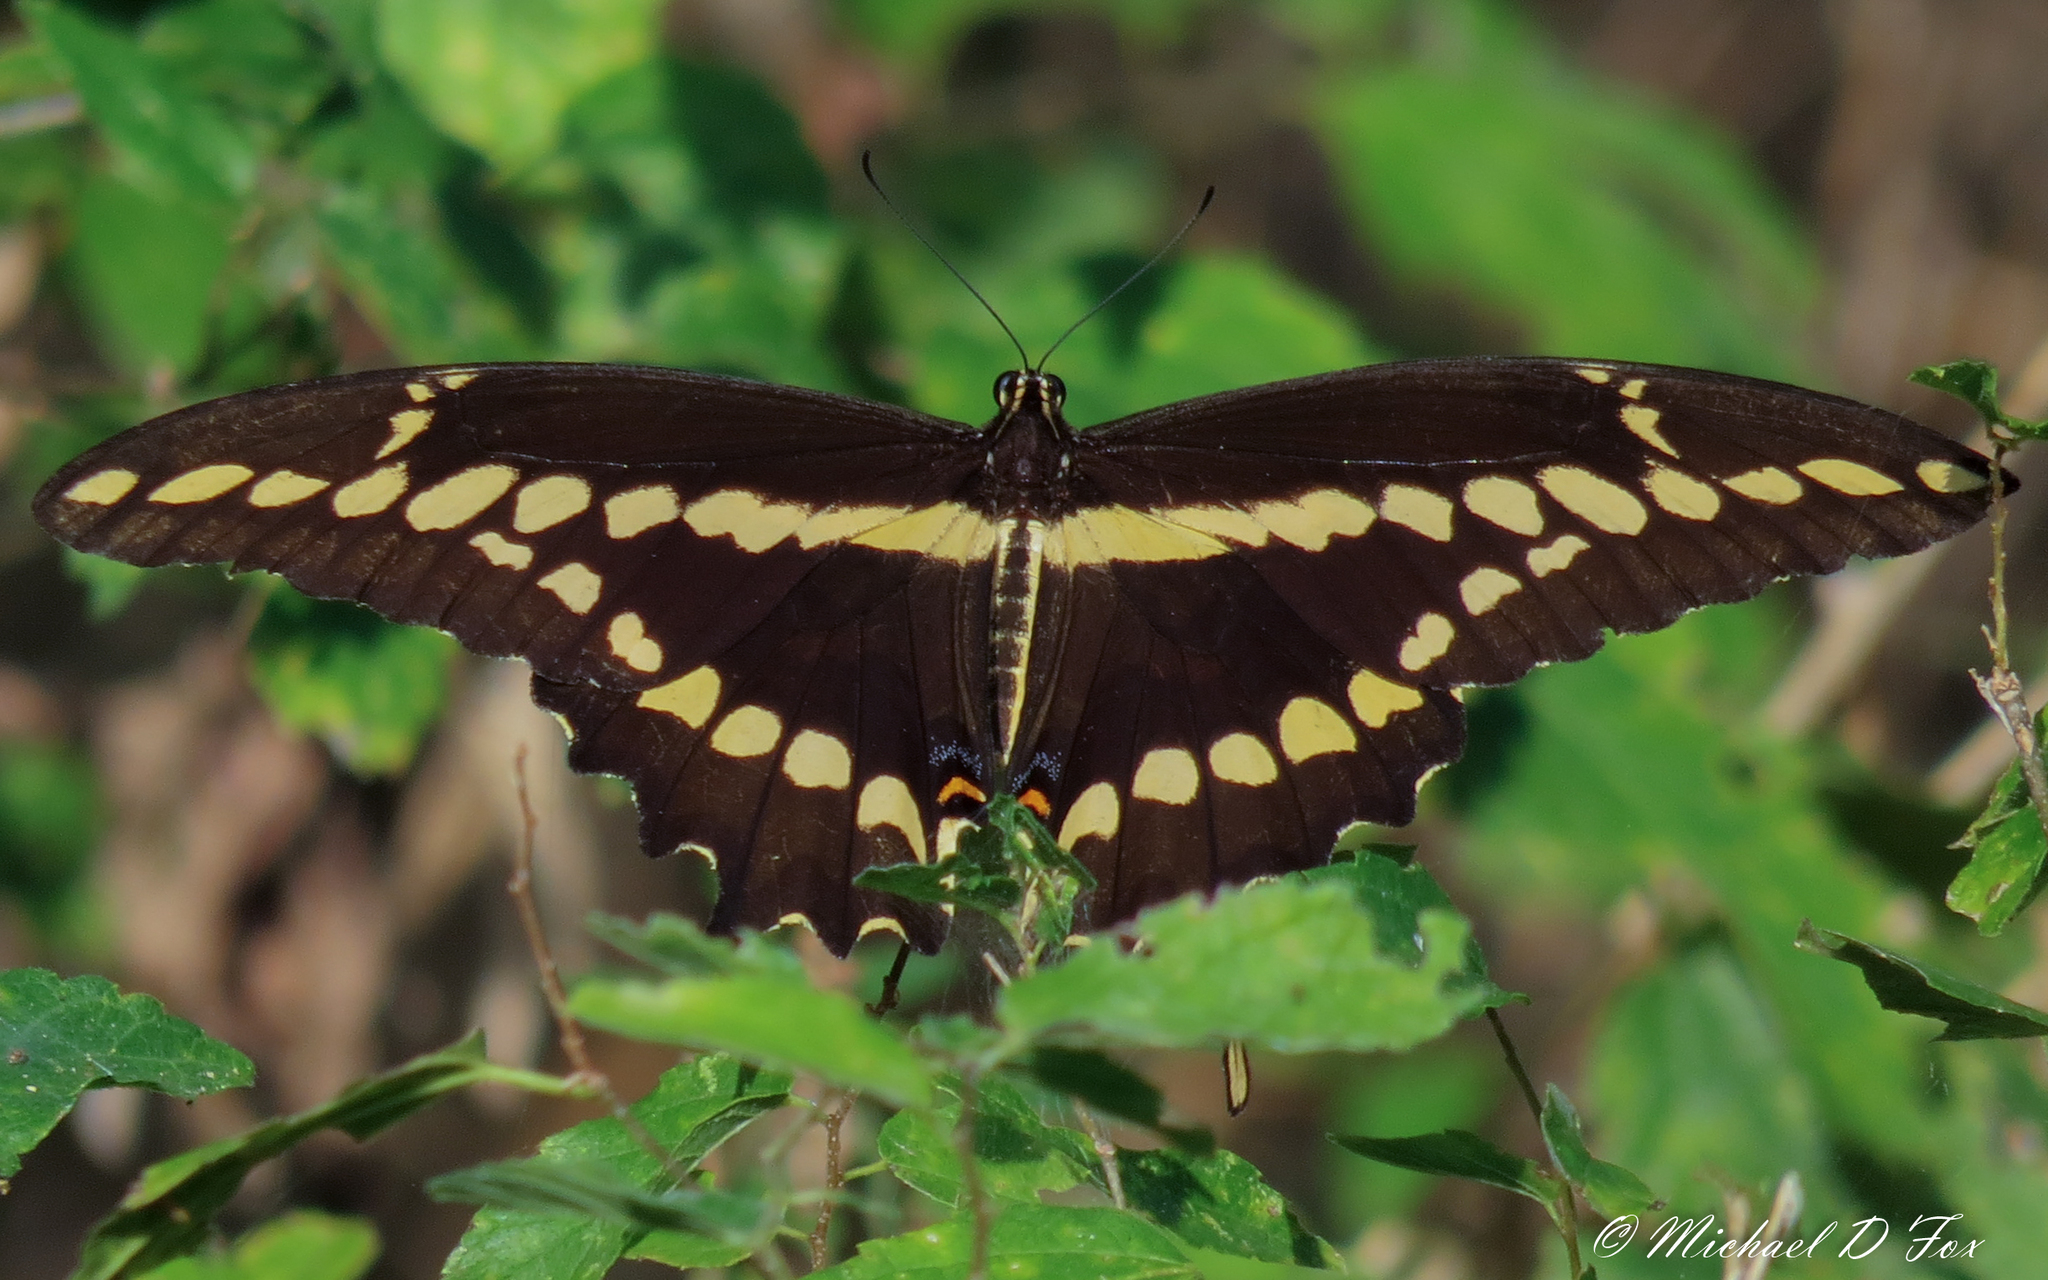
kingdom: Animalia
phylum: Arthropoda
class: Insecta
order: Lepidoptera
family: Papilionidae
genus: Papilio
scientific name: Papilio cresphontes
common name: Giant swallowtail
